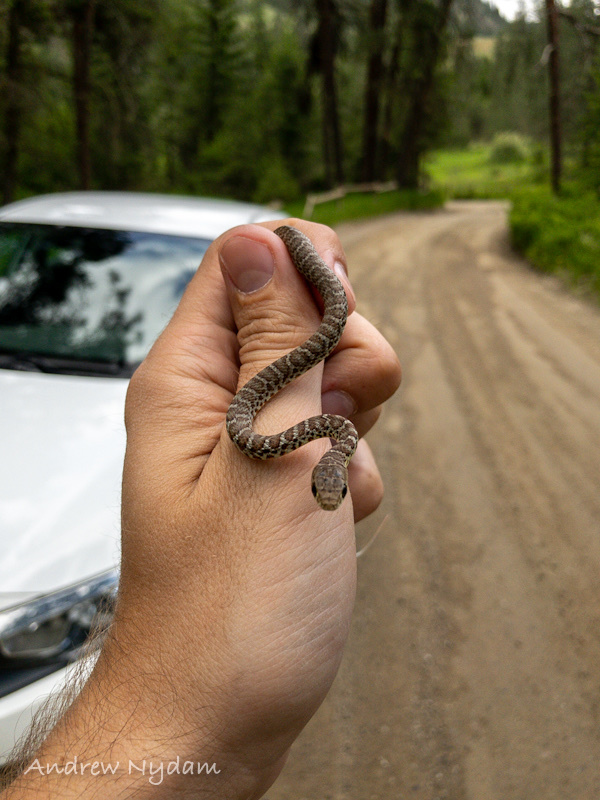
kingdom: Animalia
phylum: Chordata
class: Squamata
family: Colubridae
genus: Coluber
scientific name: Coluber constrictor
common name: Eastern racer
